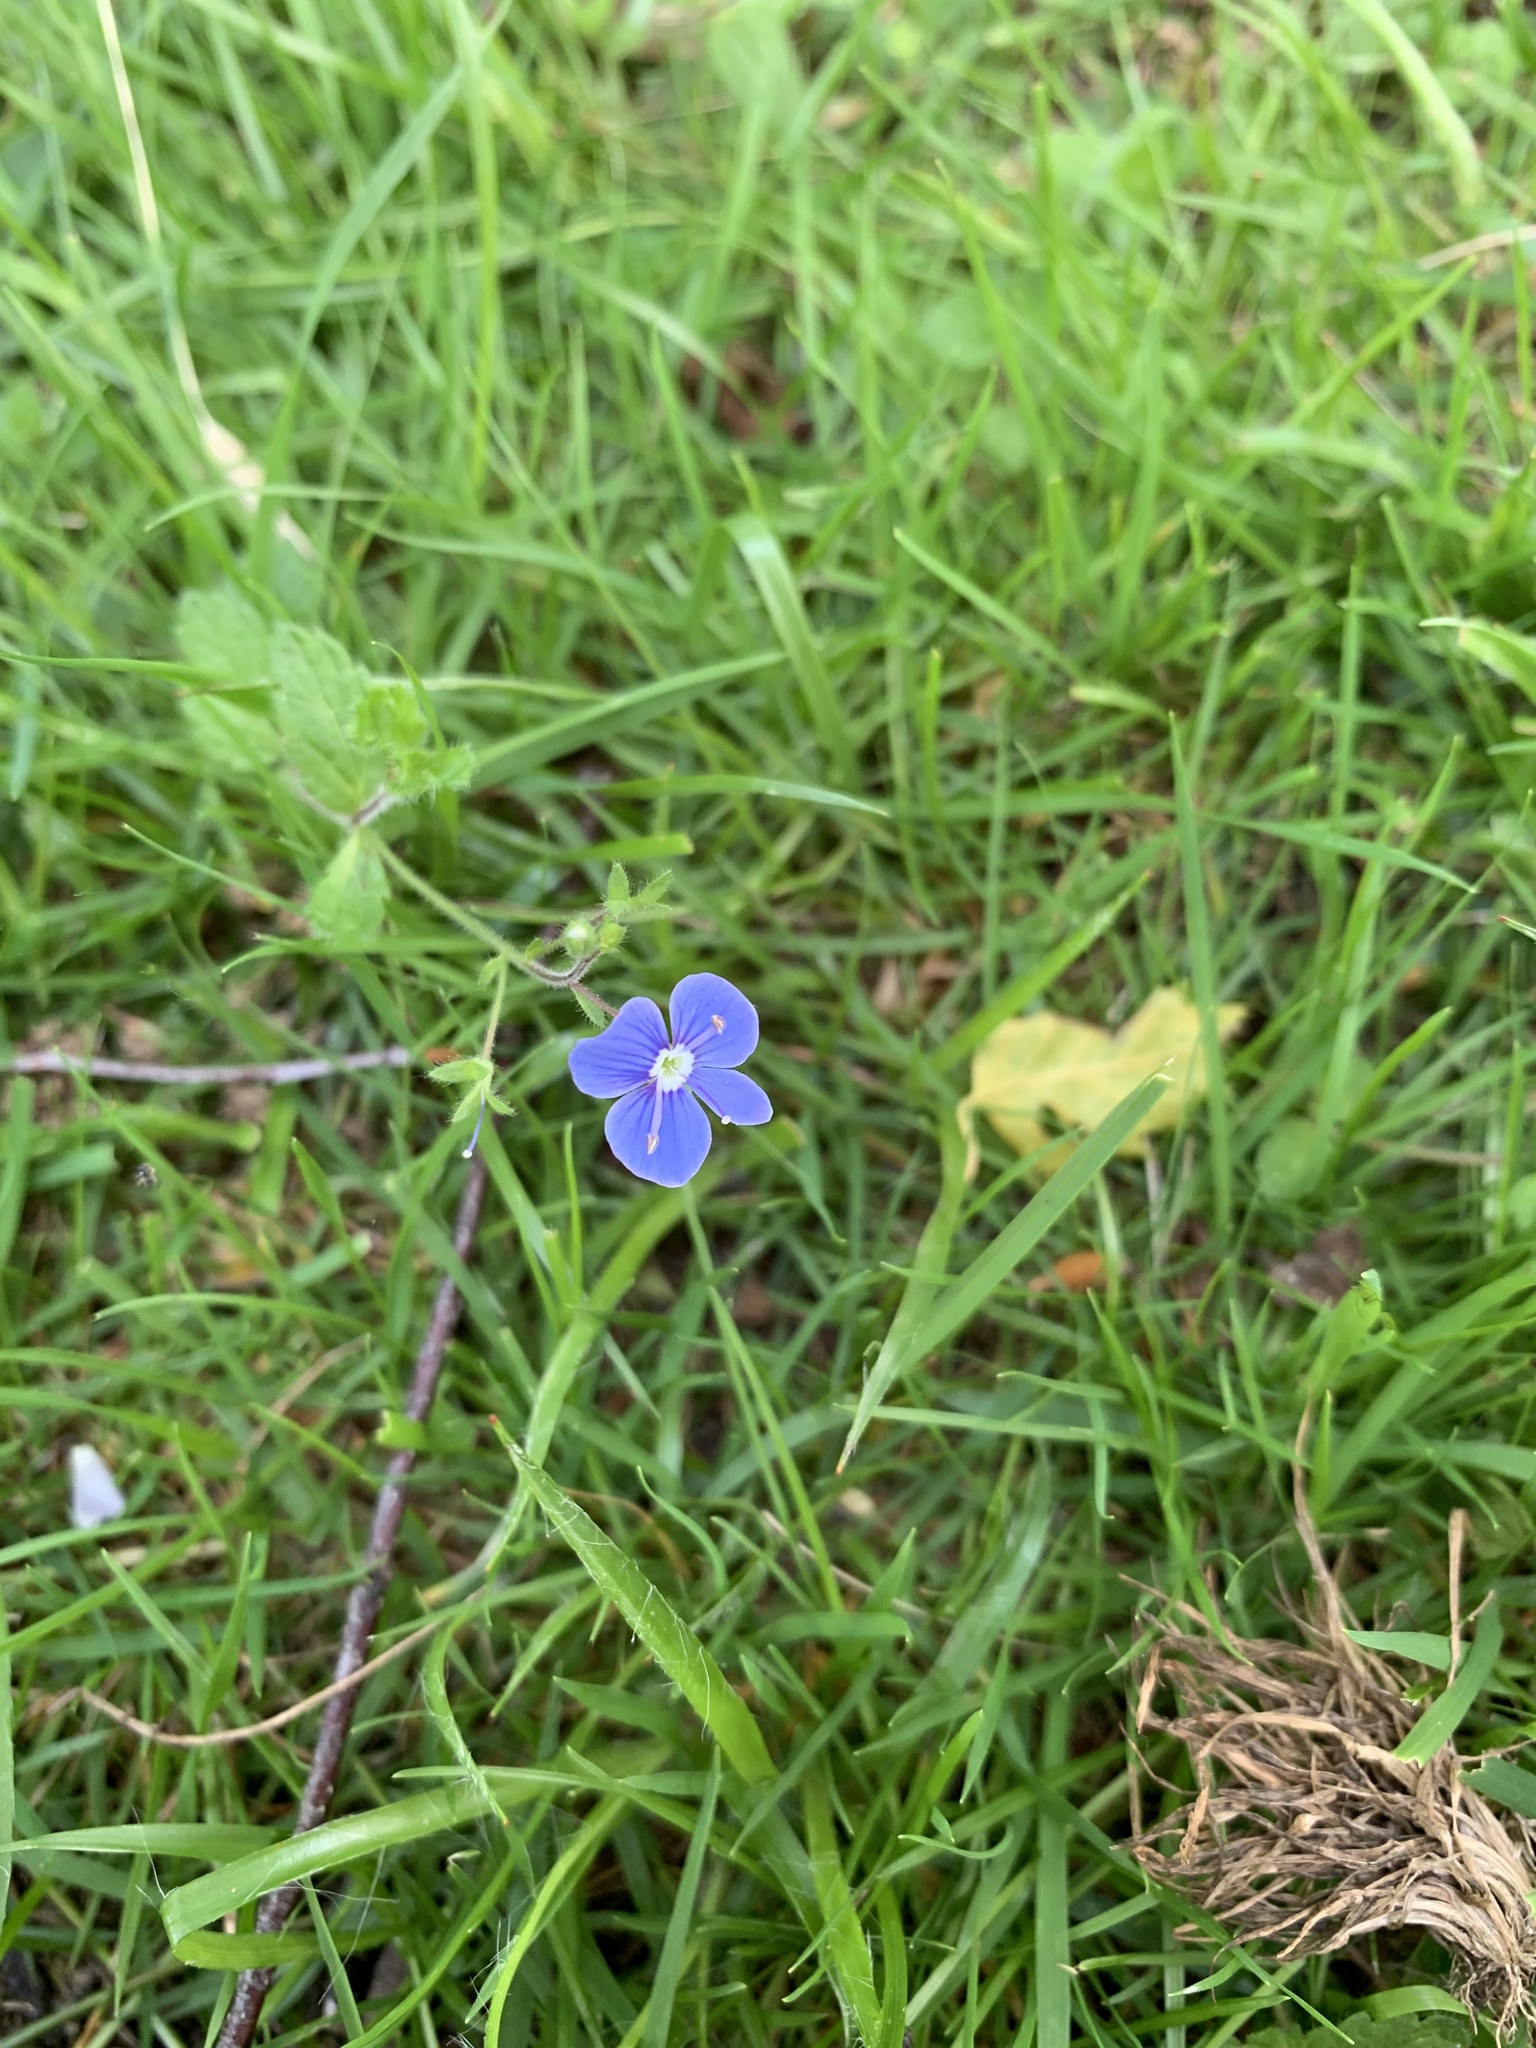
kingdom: Plantae
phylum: Tracheophyta
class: Magnoliopsida
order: Lamiales
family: Plantaginaceae
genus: Veronica
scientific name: Veronica chamaedrys
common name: Germander speedwell
